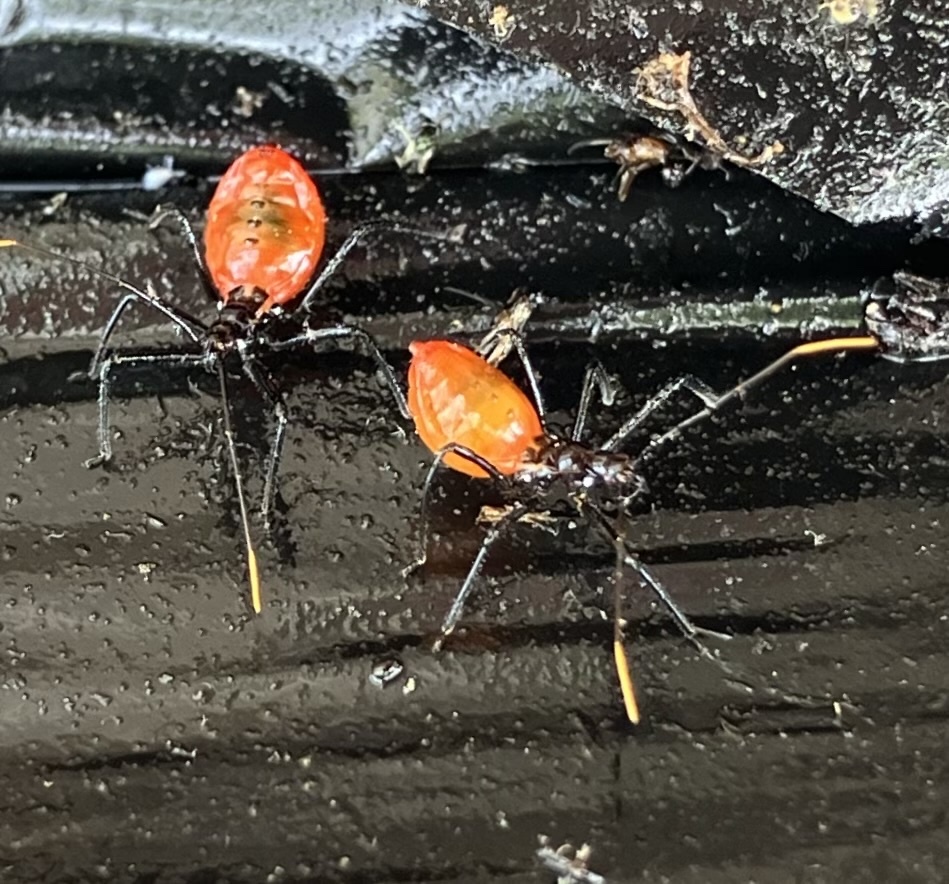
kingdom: Animalia
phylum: Arthropoda
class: Insecta
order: Hemiptera
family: Reduviidae
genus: Arilus
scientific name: Arilus cristatus
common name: North american wheel bug
